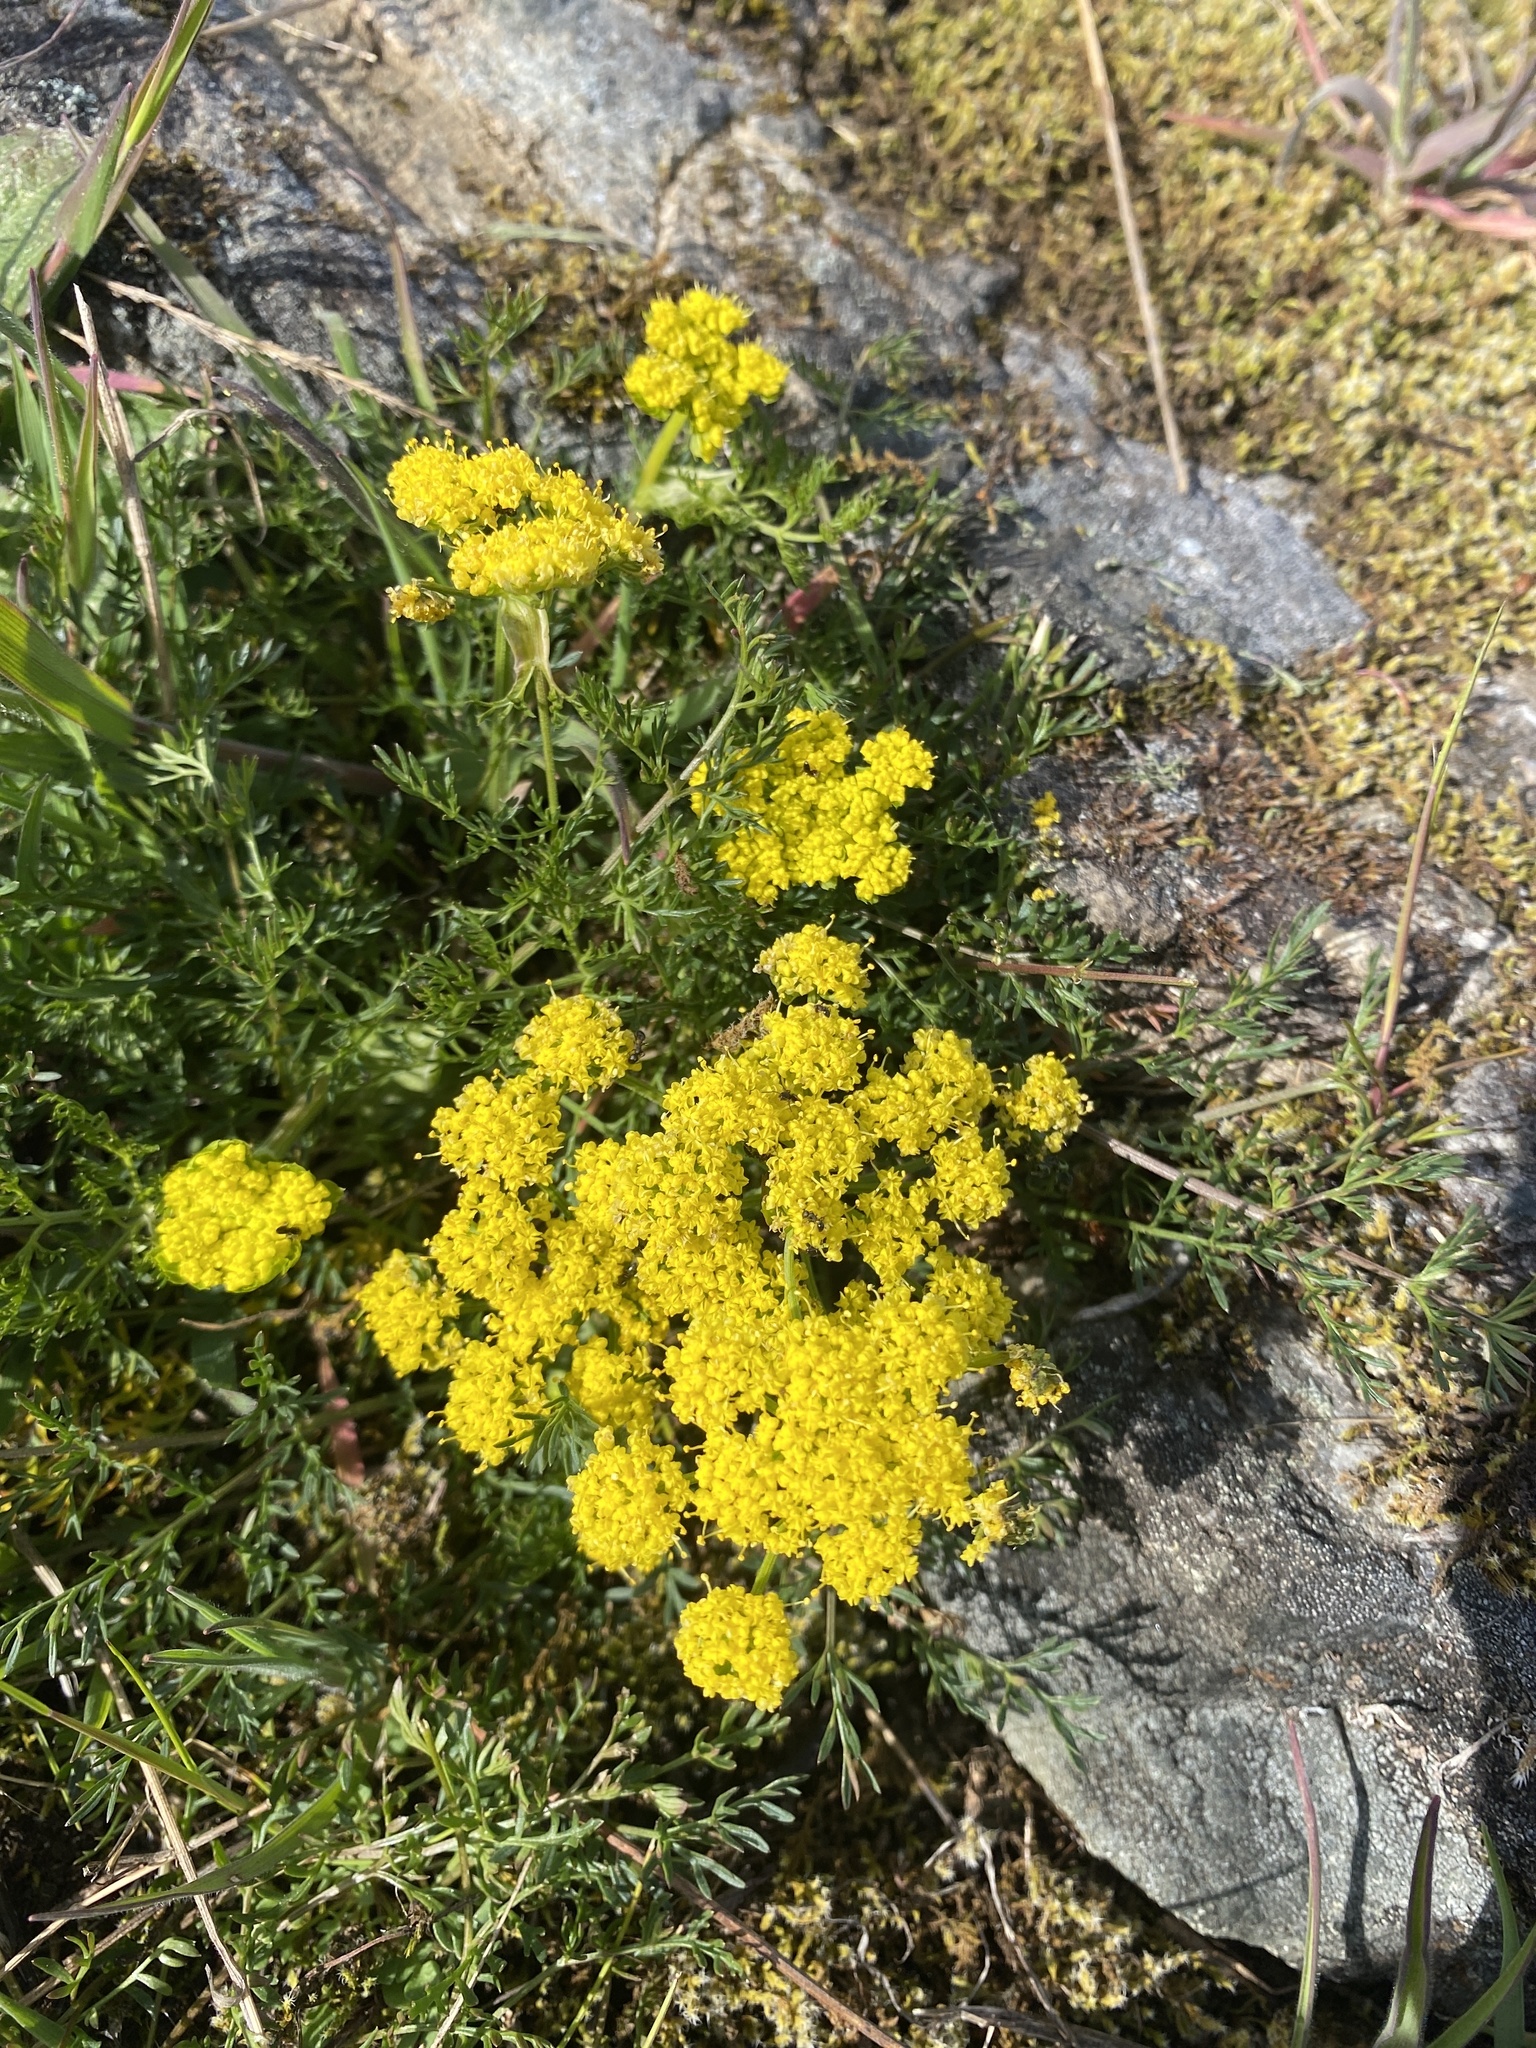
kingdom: Plantae
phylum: Tracheophyta
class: Magnoliopsida
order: Apiales
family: Apiaceae
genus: Lomatium
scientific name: Lomatium utriculatum
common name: Fine-leaf desert-parsley
